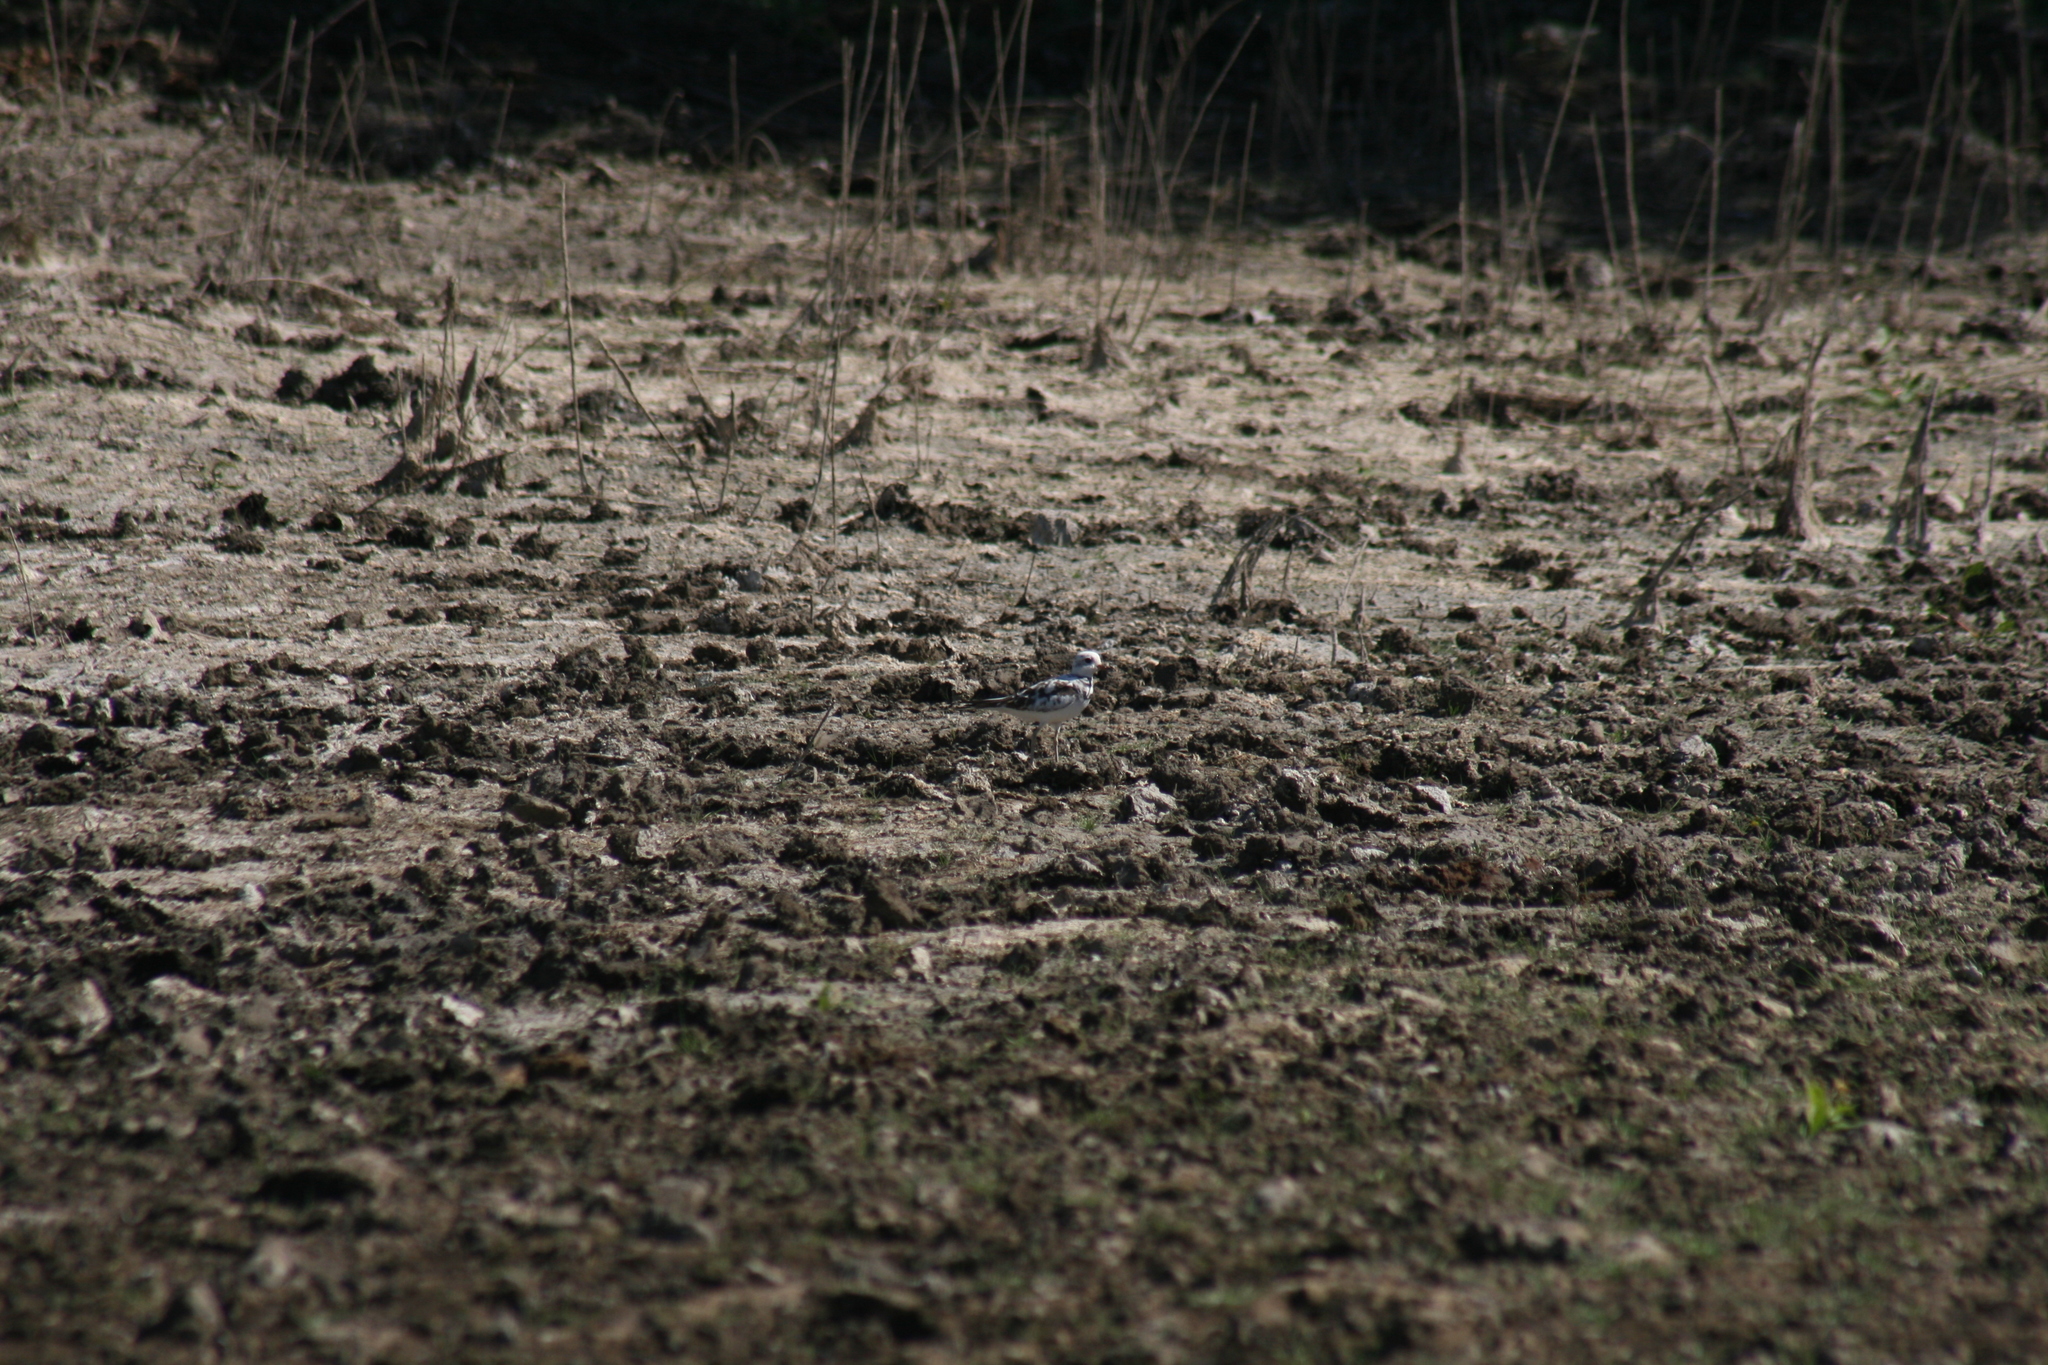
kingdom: Animalia
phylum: Chordata
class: Aves
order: Charadriiformes
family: Charadriidae
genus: Charadrius
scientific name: Charadrius vociferus
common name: Killdeer
